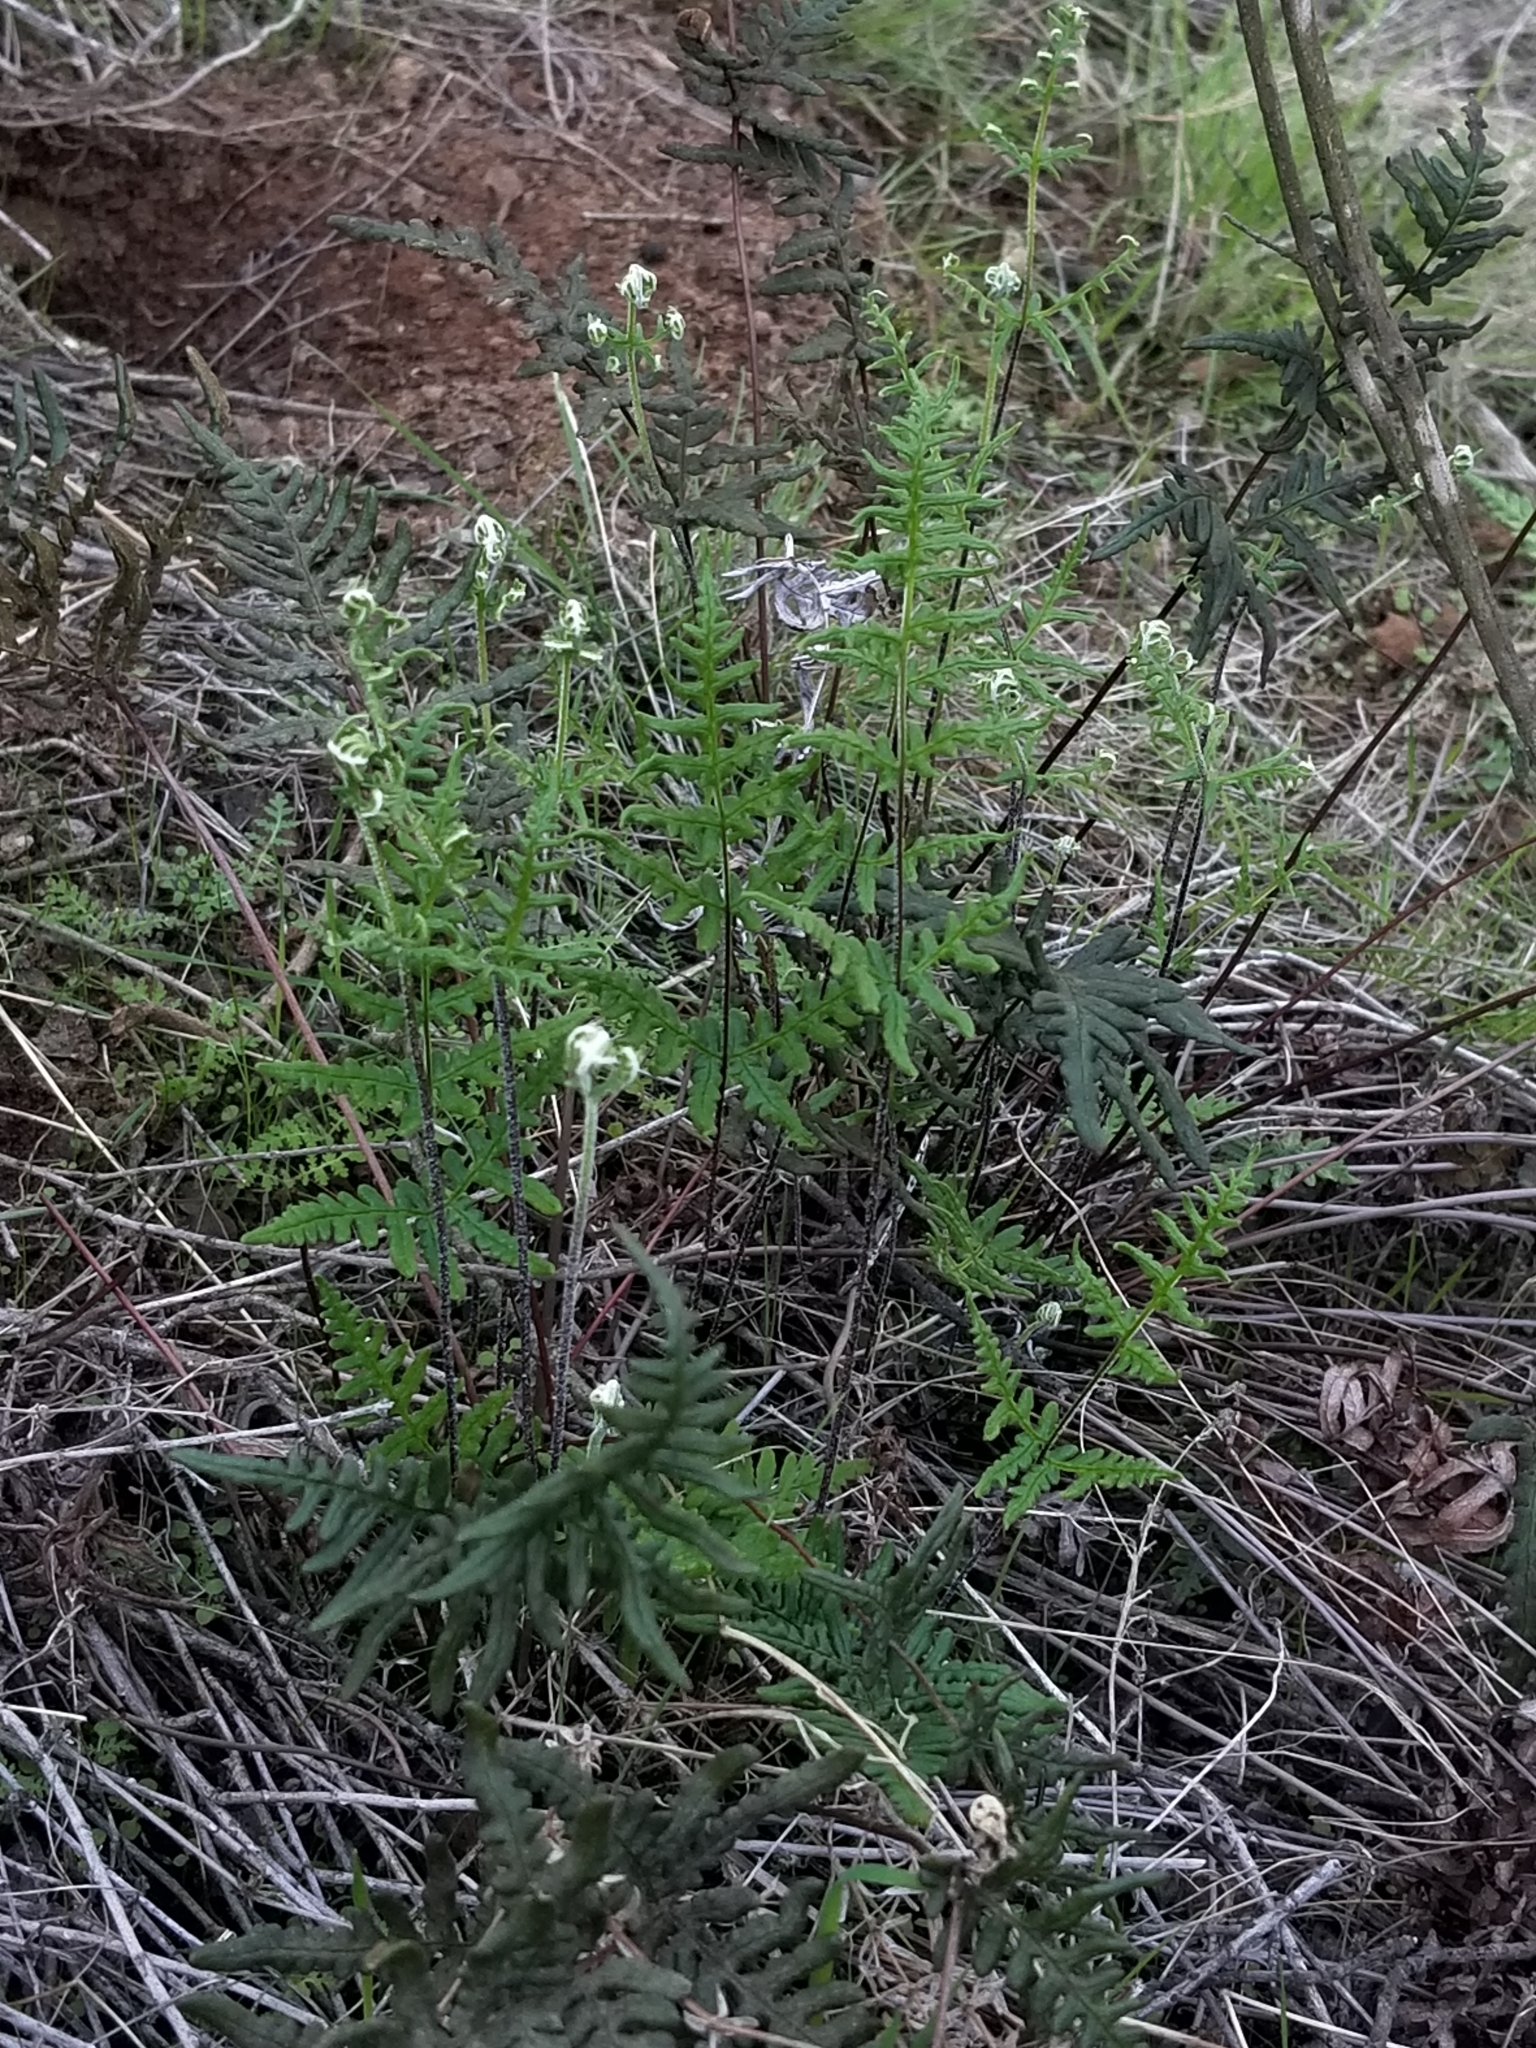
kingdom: Plantae
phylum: Tracheophyta
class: Polypodiopsida
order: Polypodiales
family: Pteridaceae
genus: Pentagramma
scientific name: Pentagramma viscosa
